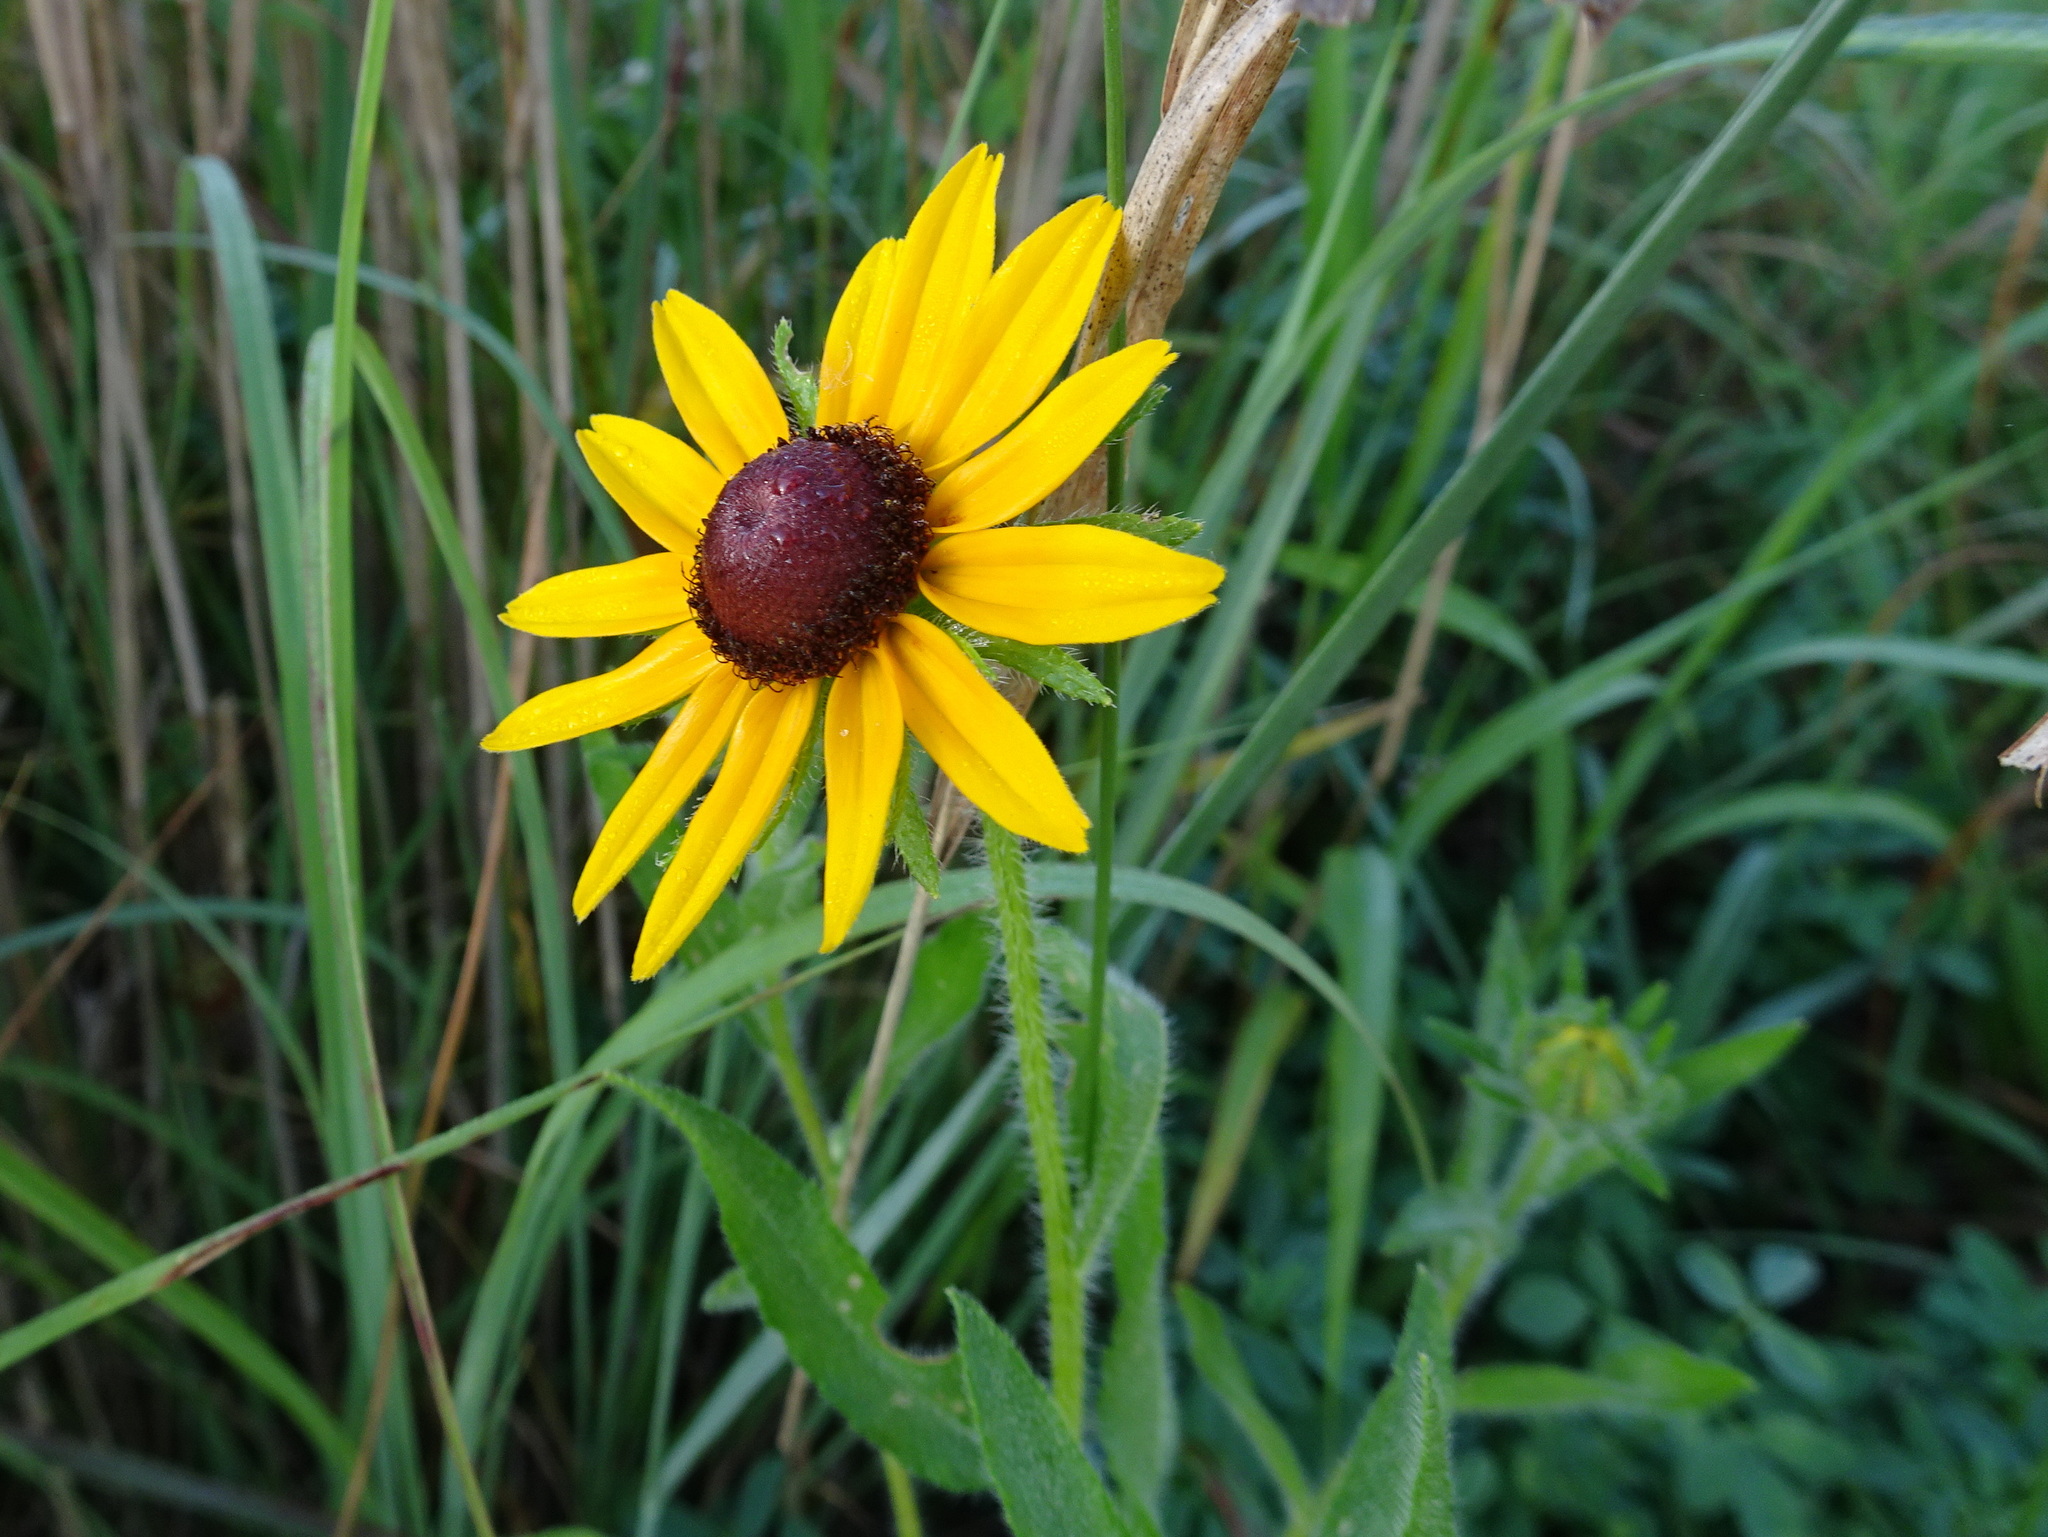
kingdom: Plantae
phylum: Tracheophyta
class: Magnoliopsida
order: Asterales
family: Asteraceae
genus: Rudbeckia
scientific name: Rudbeckia hirta
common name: Black-eyed-susan
